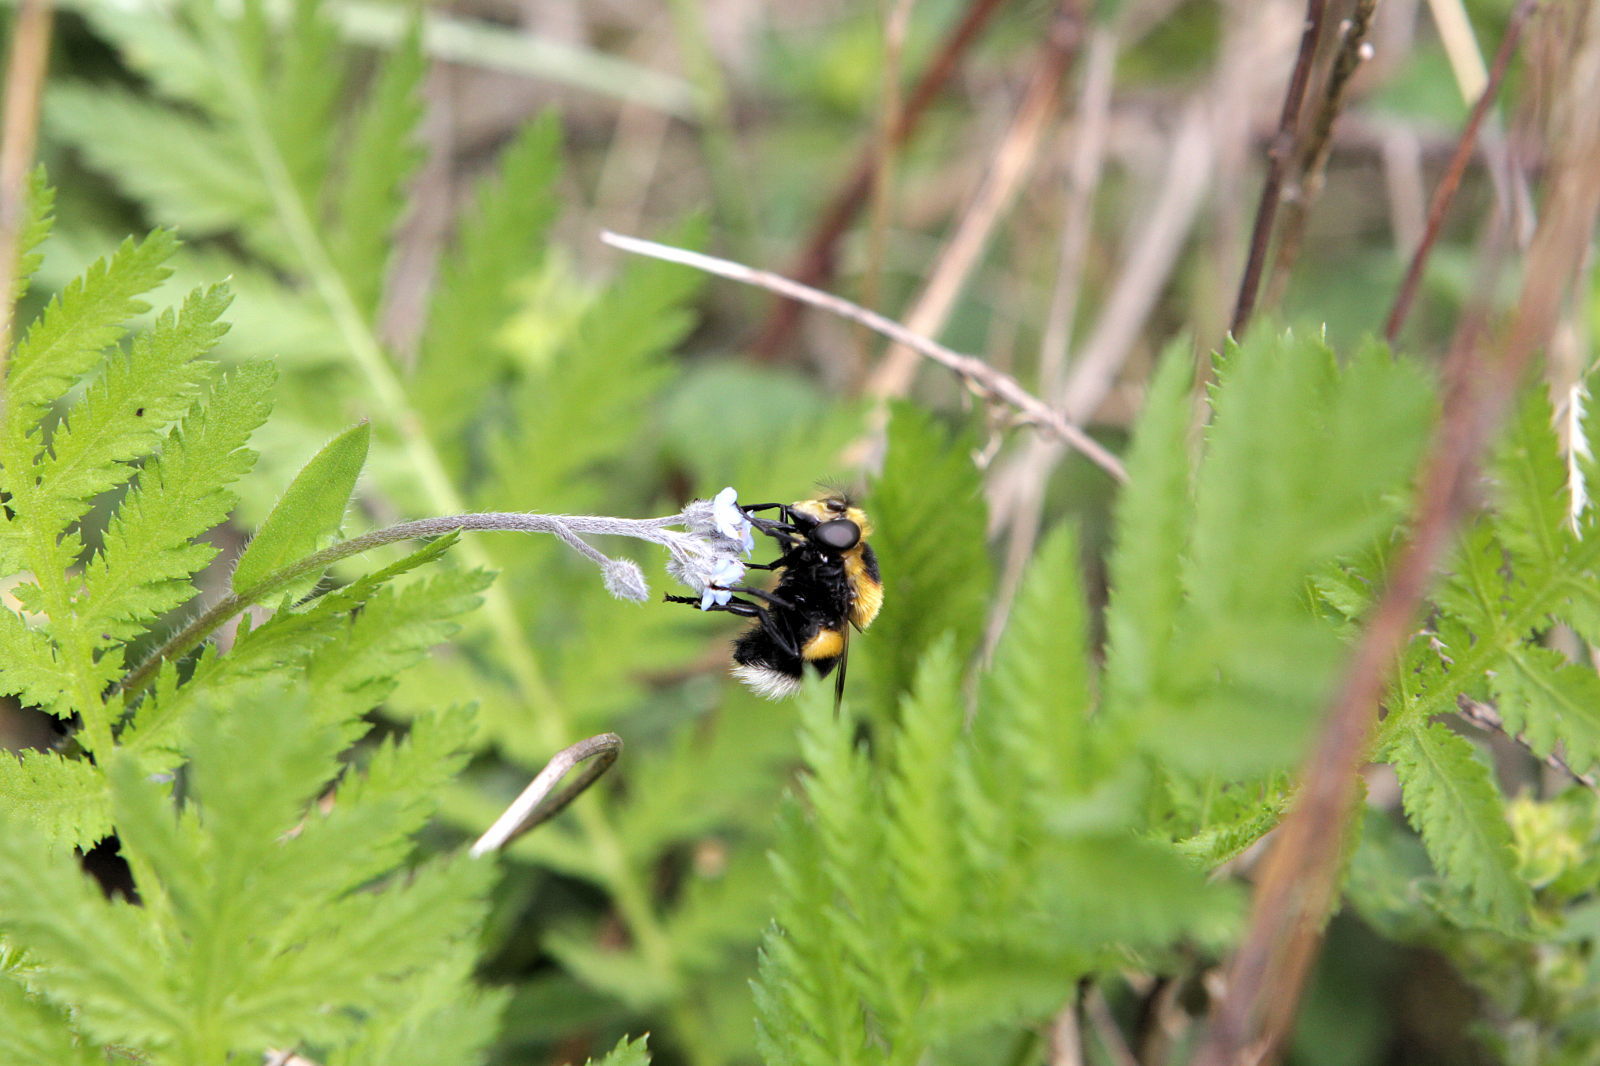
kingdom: Animalia
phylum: Arthropoda
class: Insecta
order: Diptera
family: Syrphidae
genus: Volucella
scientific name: Volucella bombylans
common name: Bumble bee hover fly
